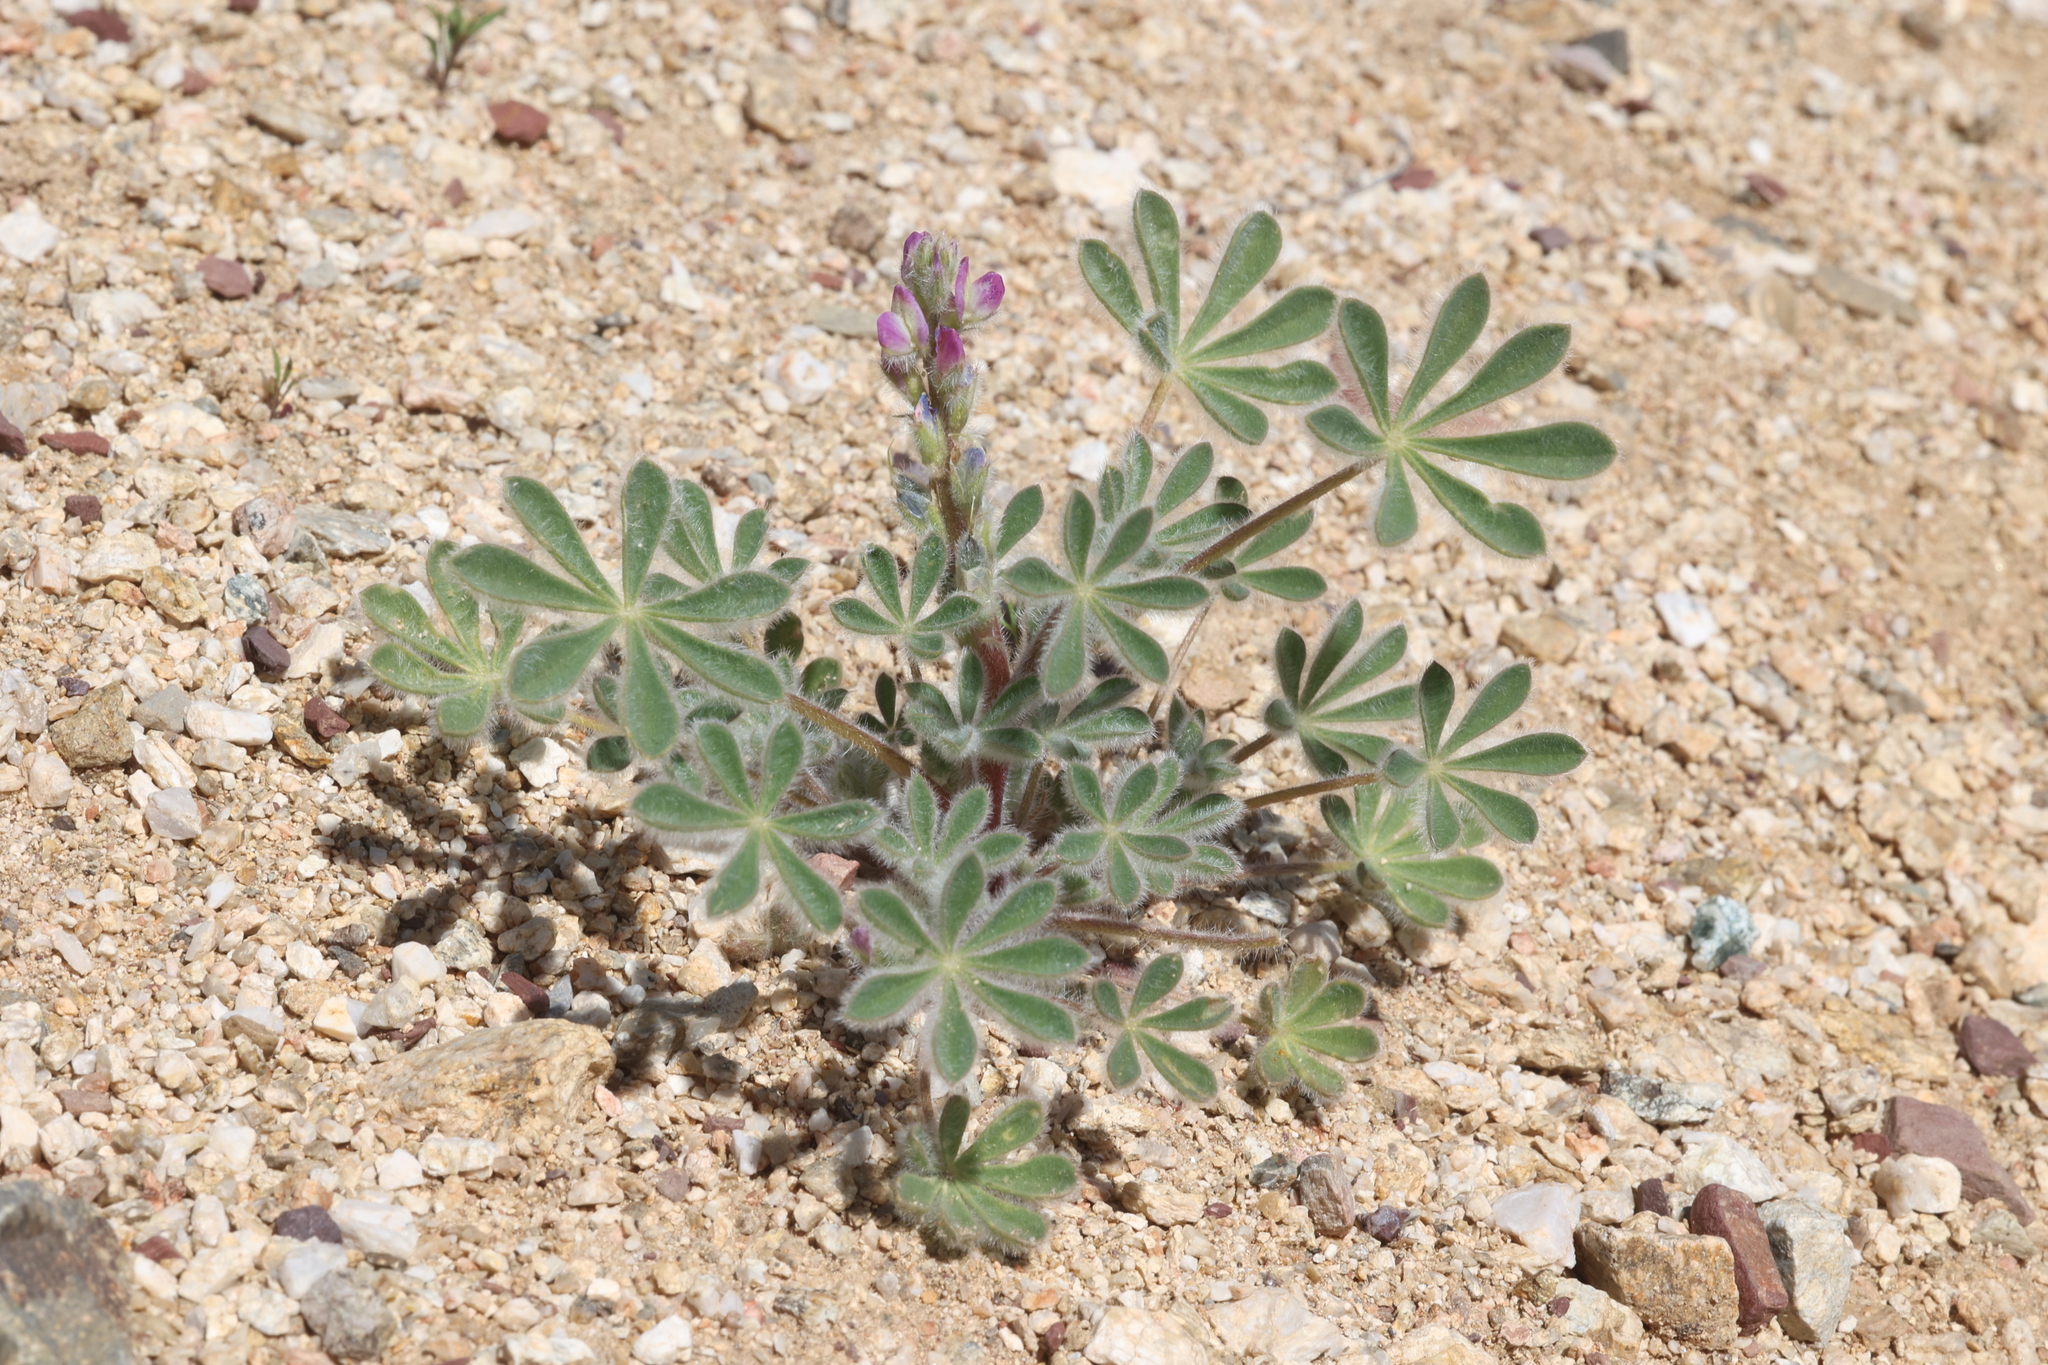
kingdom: Plantae
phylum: Tracheophyta
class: Magnoliopsida
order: Fabales
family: Fabaceae
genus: Lupinus
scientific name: Lupinus concinnus
